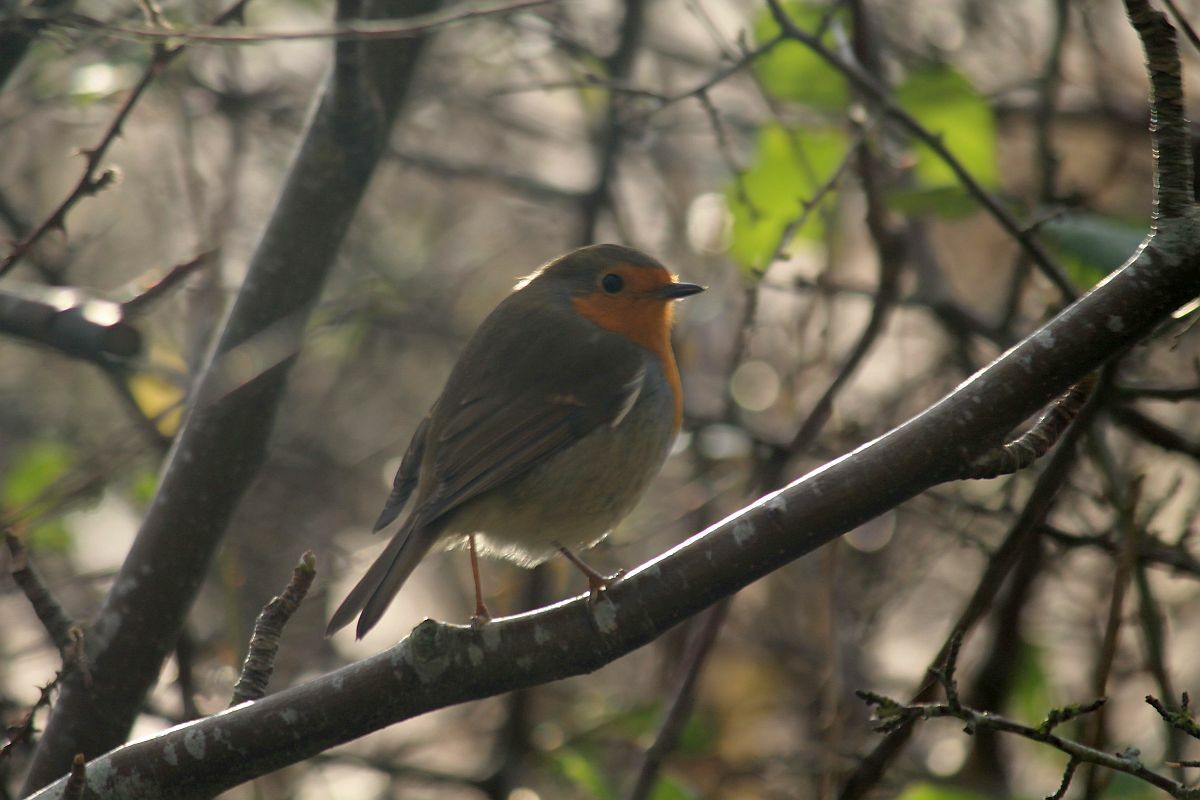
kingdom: Animalia
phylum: Chordata
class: Aves
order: Passeriformes
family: Muscicapidae
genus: Erithacus
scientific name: Erithacus rubecula
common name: European robin
